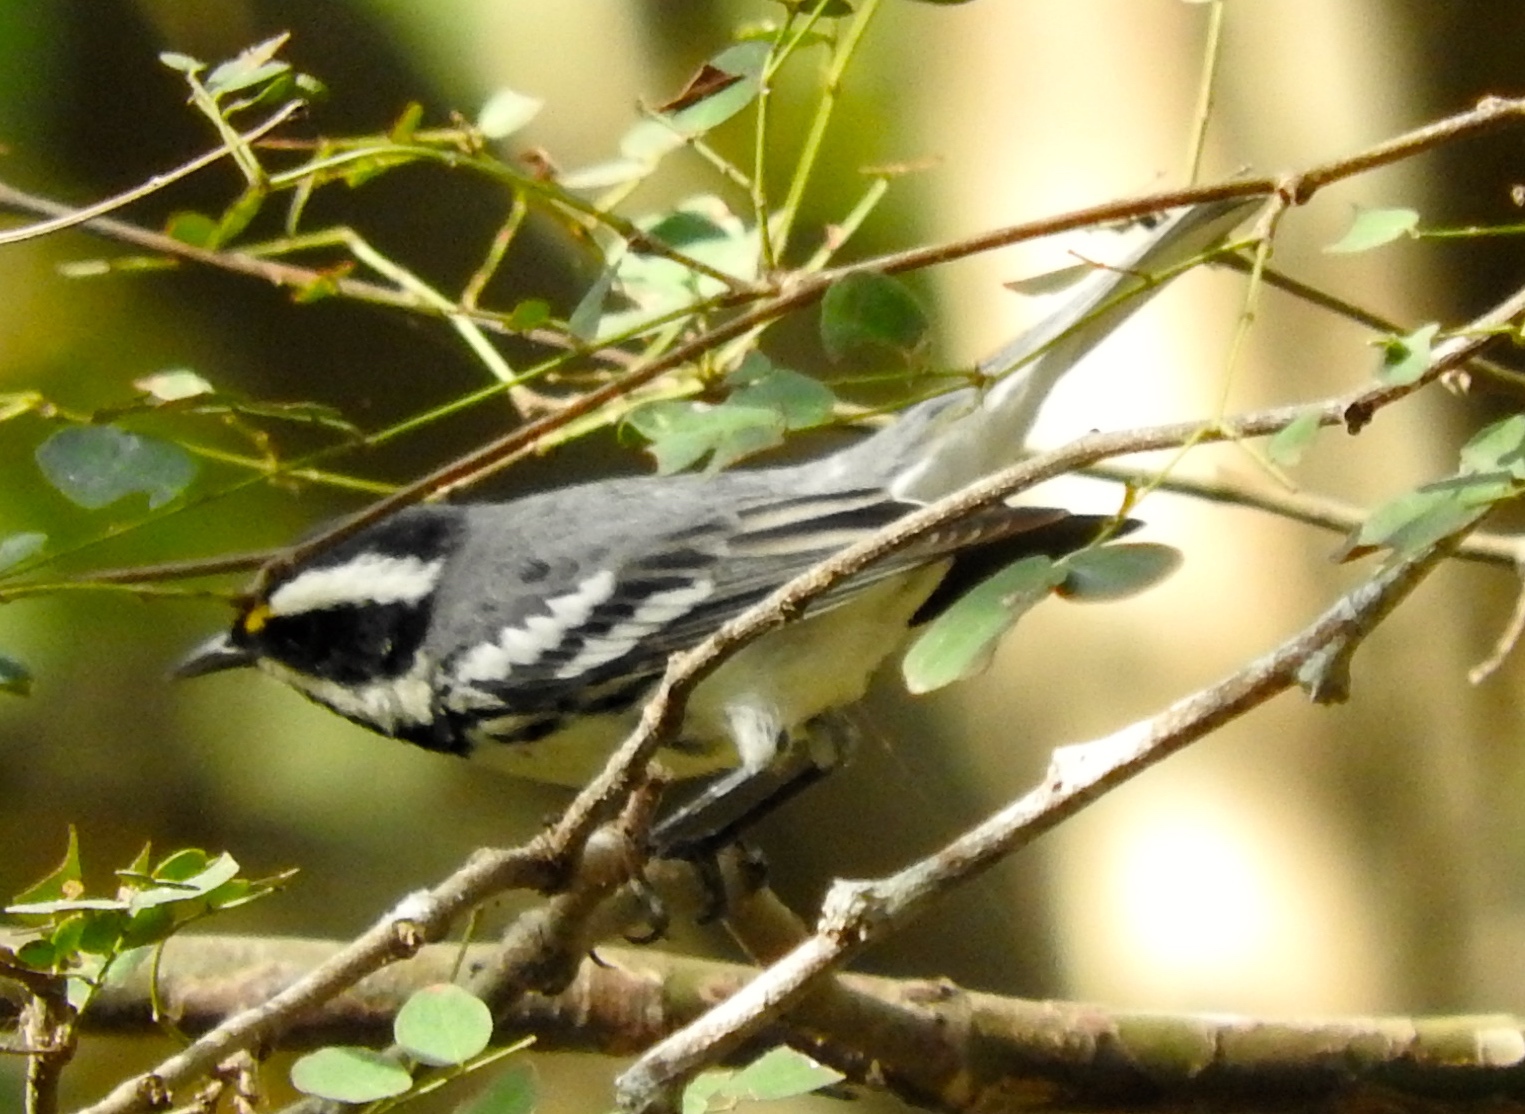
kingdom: Animalia
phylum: Chordata
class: Aves
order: Passeriformes
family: Parulidae
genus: Setophaga
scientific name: Setophaga nigrescens
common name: Black-throated gray warbler
